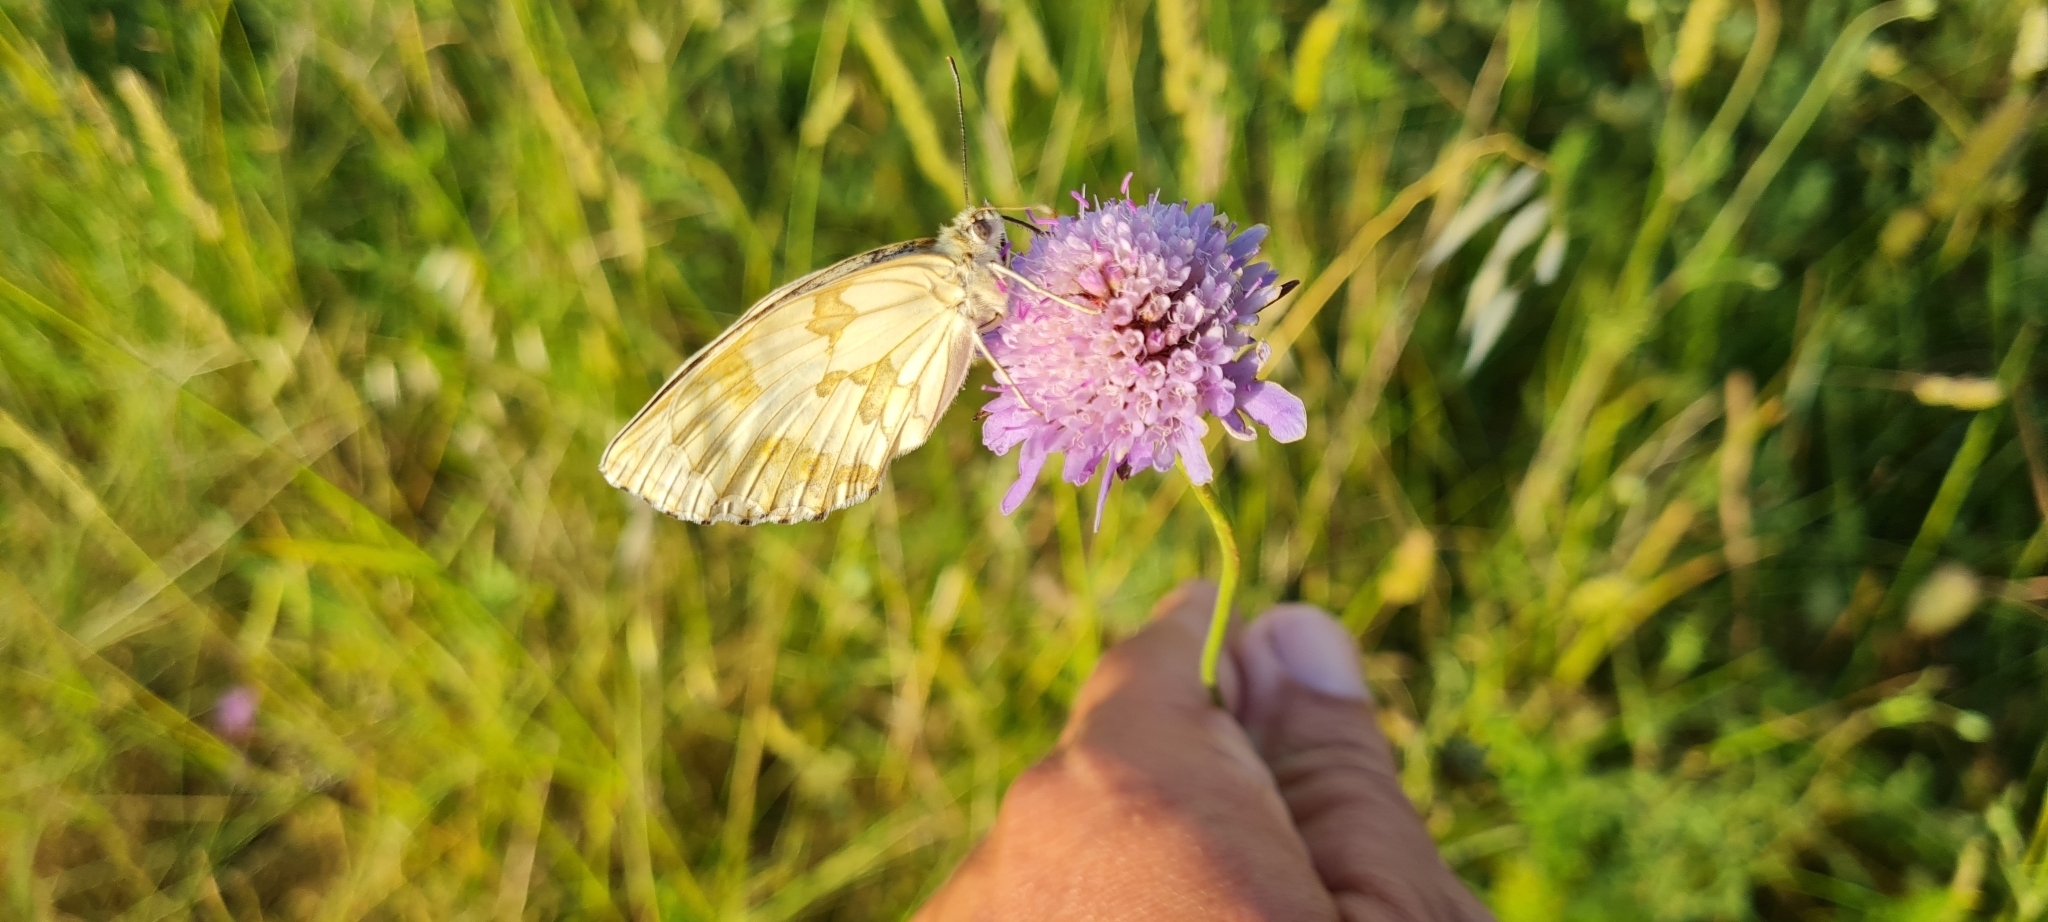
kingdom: Animalia
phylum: Arthropoda
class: Insecta
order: Lepidoptera
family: Nymphalidae
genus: Melanargia
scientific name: Melanargia lachesis
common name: Iberian marbled white
